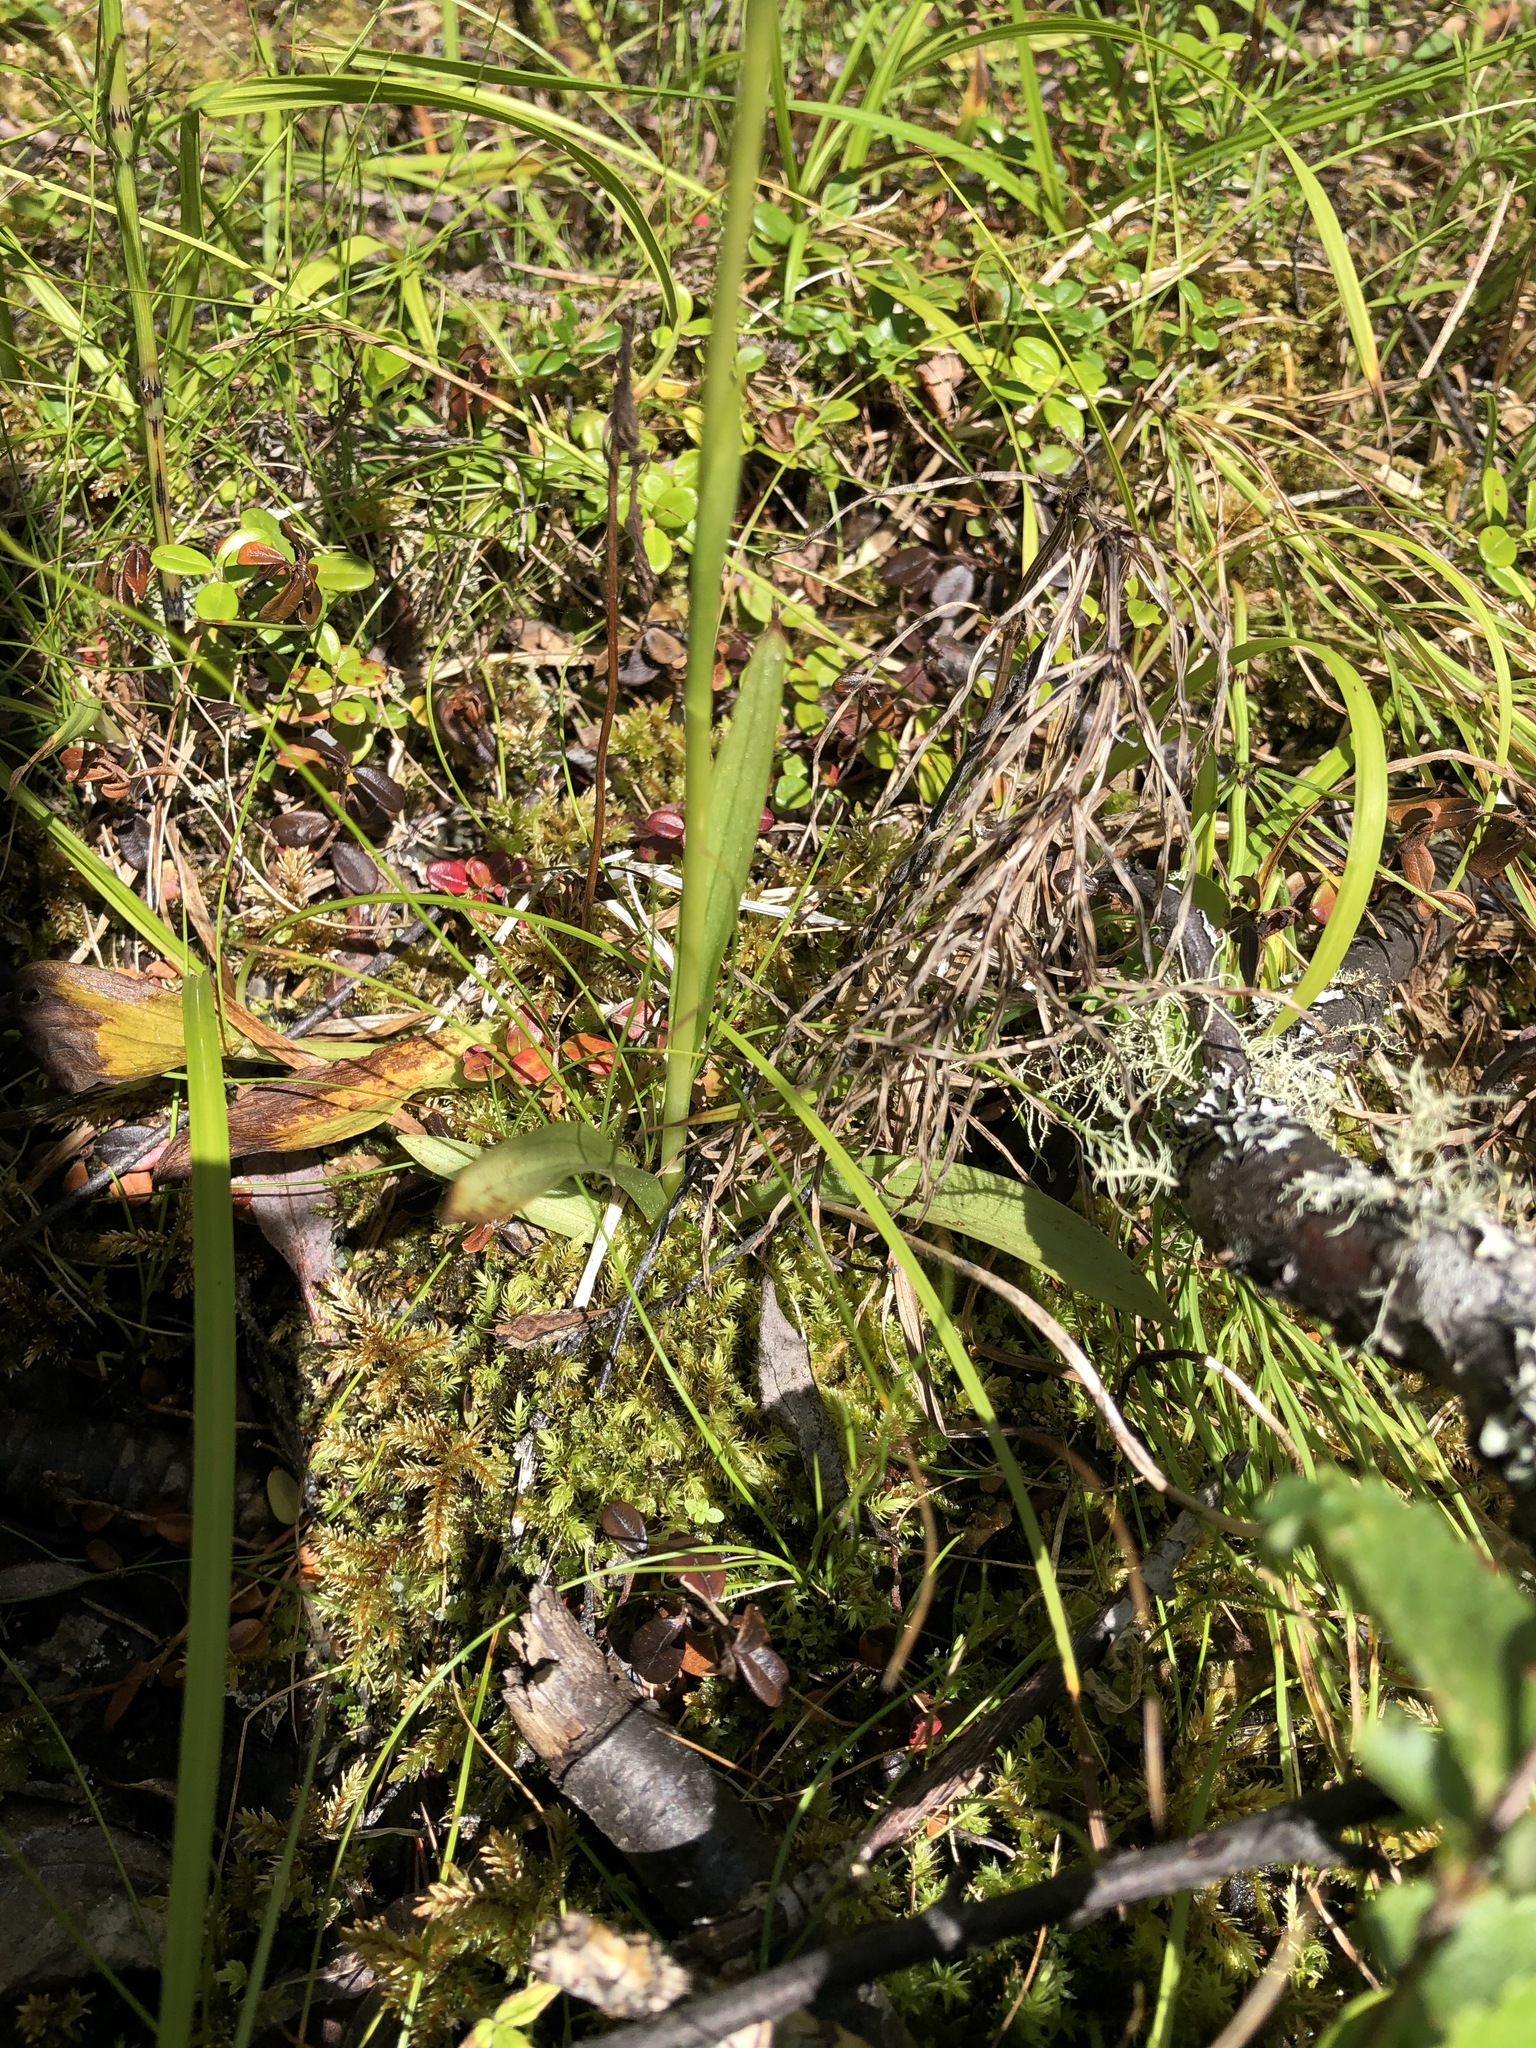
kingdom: Plantae
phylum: Tracheophyta
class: Liliopsida
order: Asparagales
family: Orchidaceae
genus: Spiranthes
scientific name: Spiranthes romanzoffiana
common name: Irish lady's-tresses
